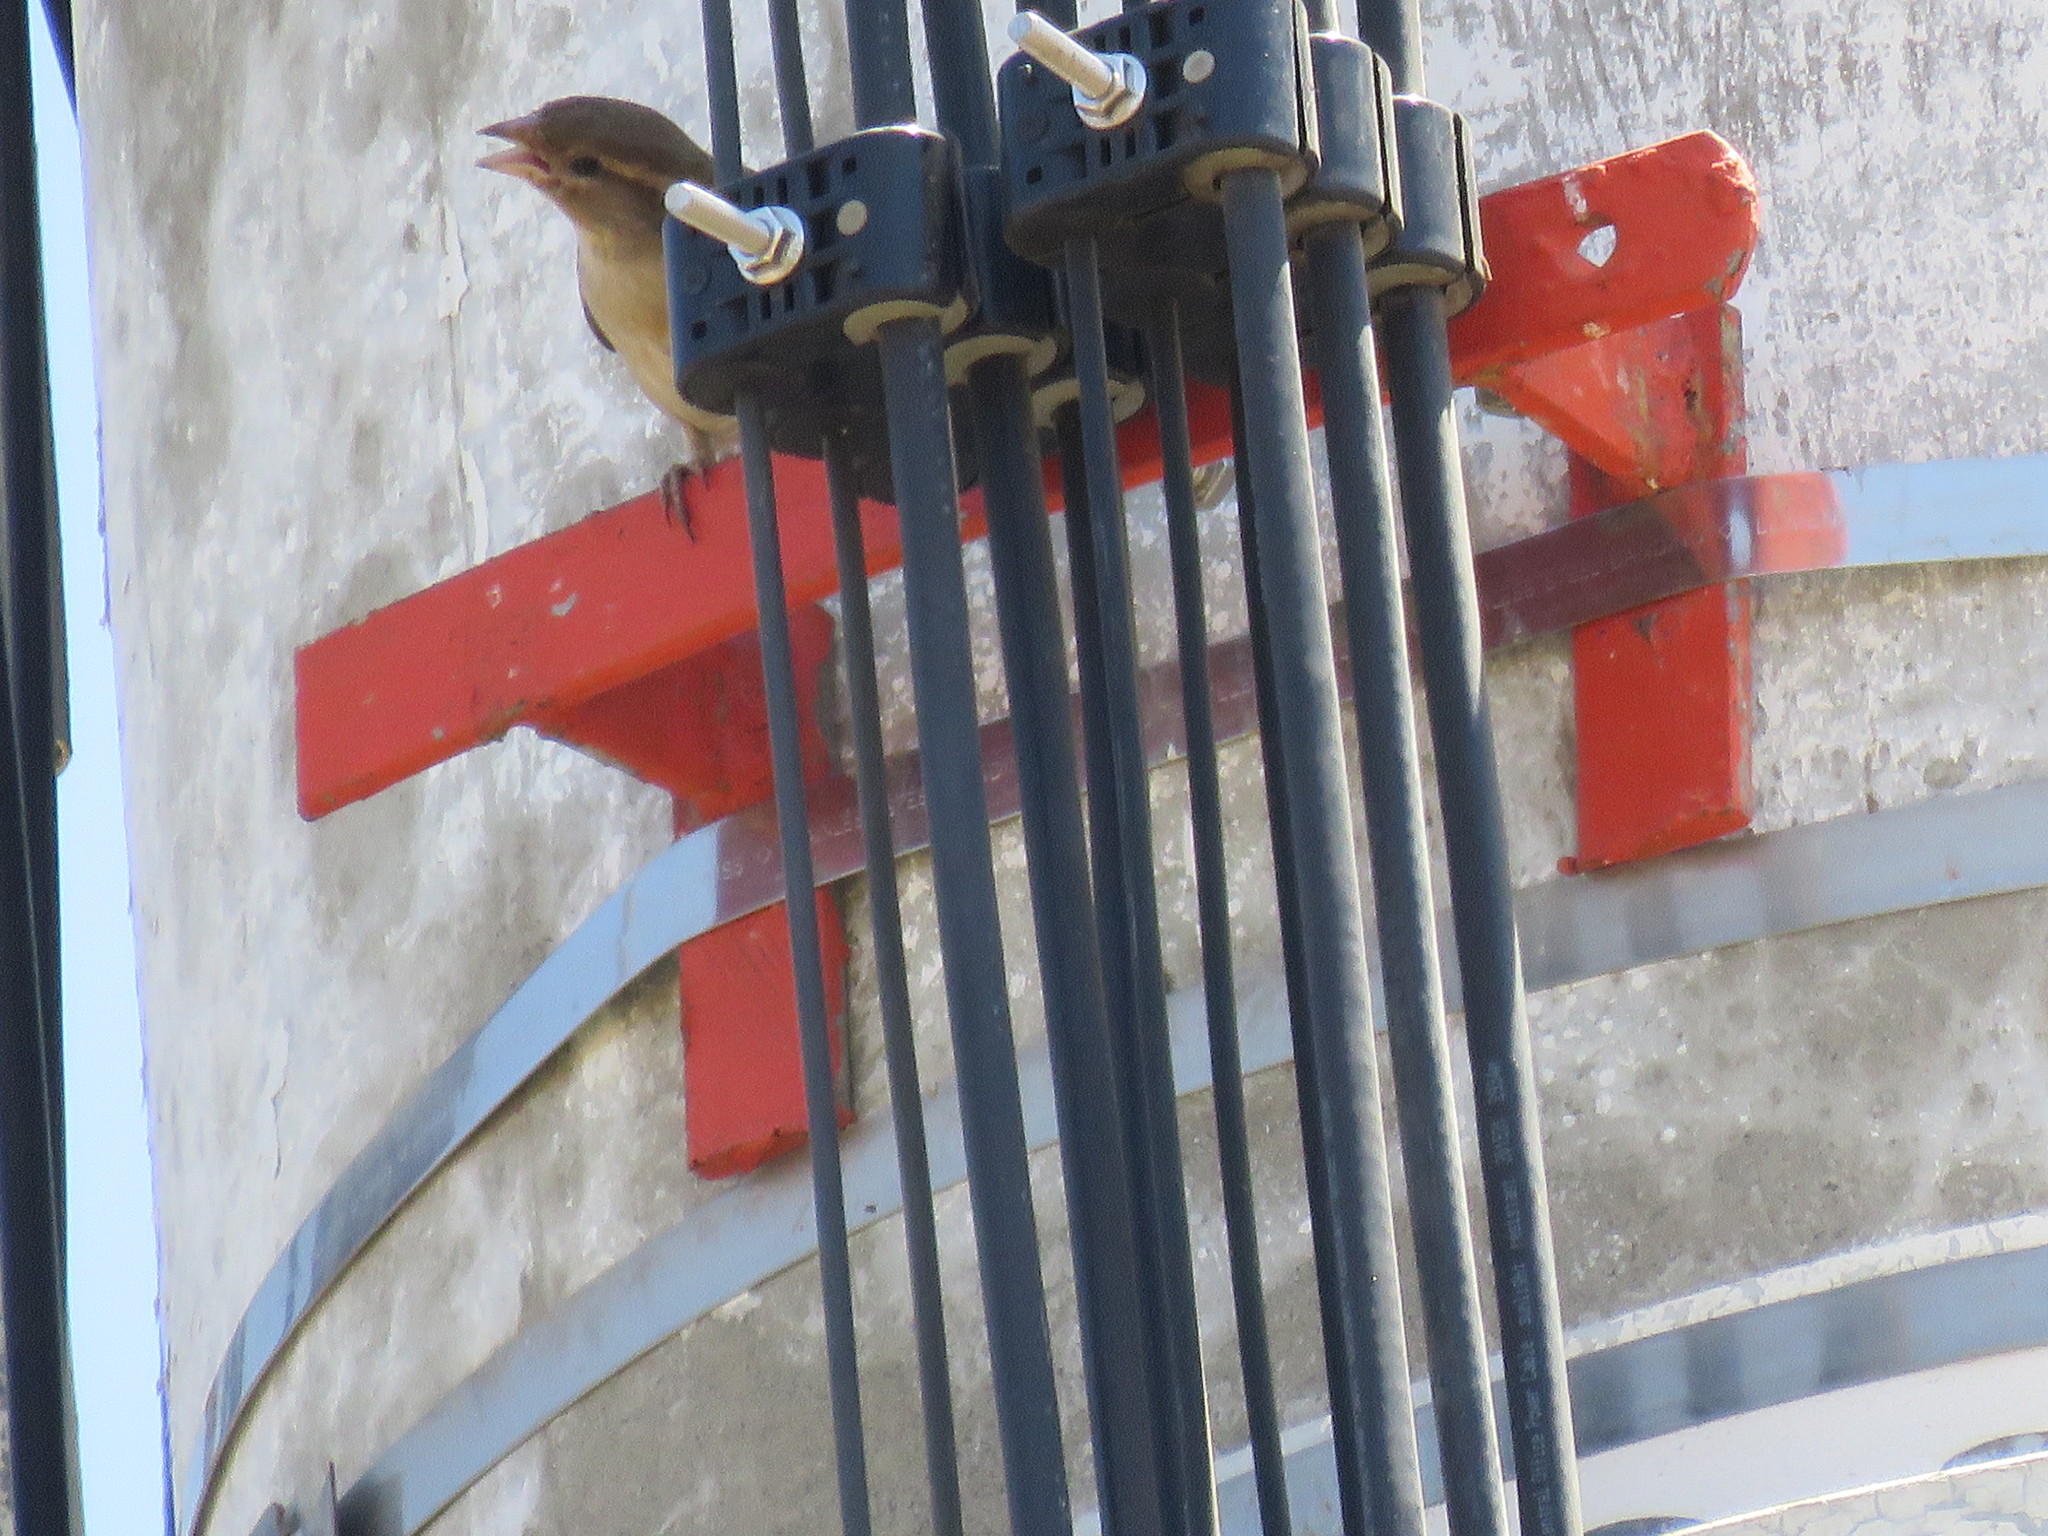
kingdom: Animalia
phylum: Chordata
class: Aves
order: Passeriformes
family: Passeridae
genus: Passer
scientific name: Passer domesticus
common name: House sparrow
